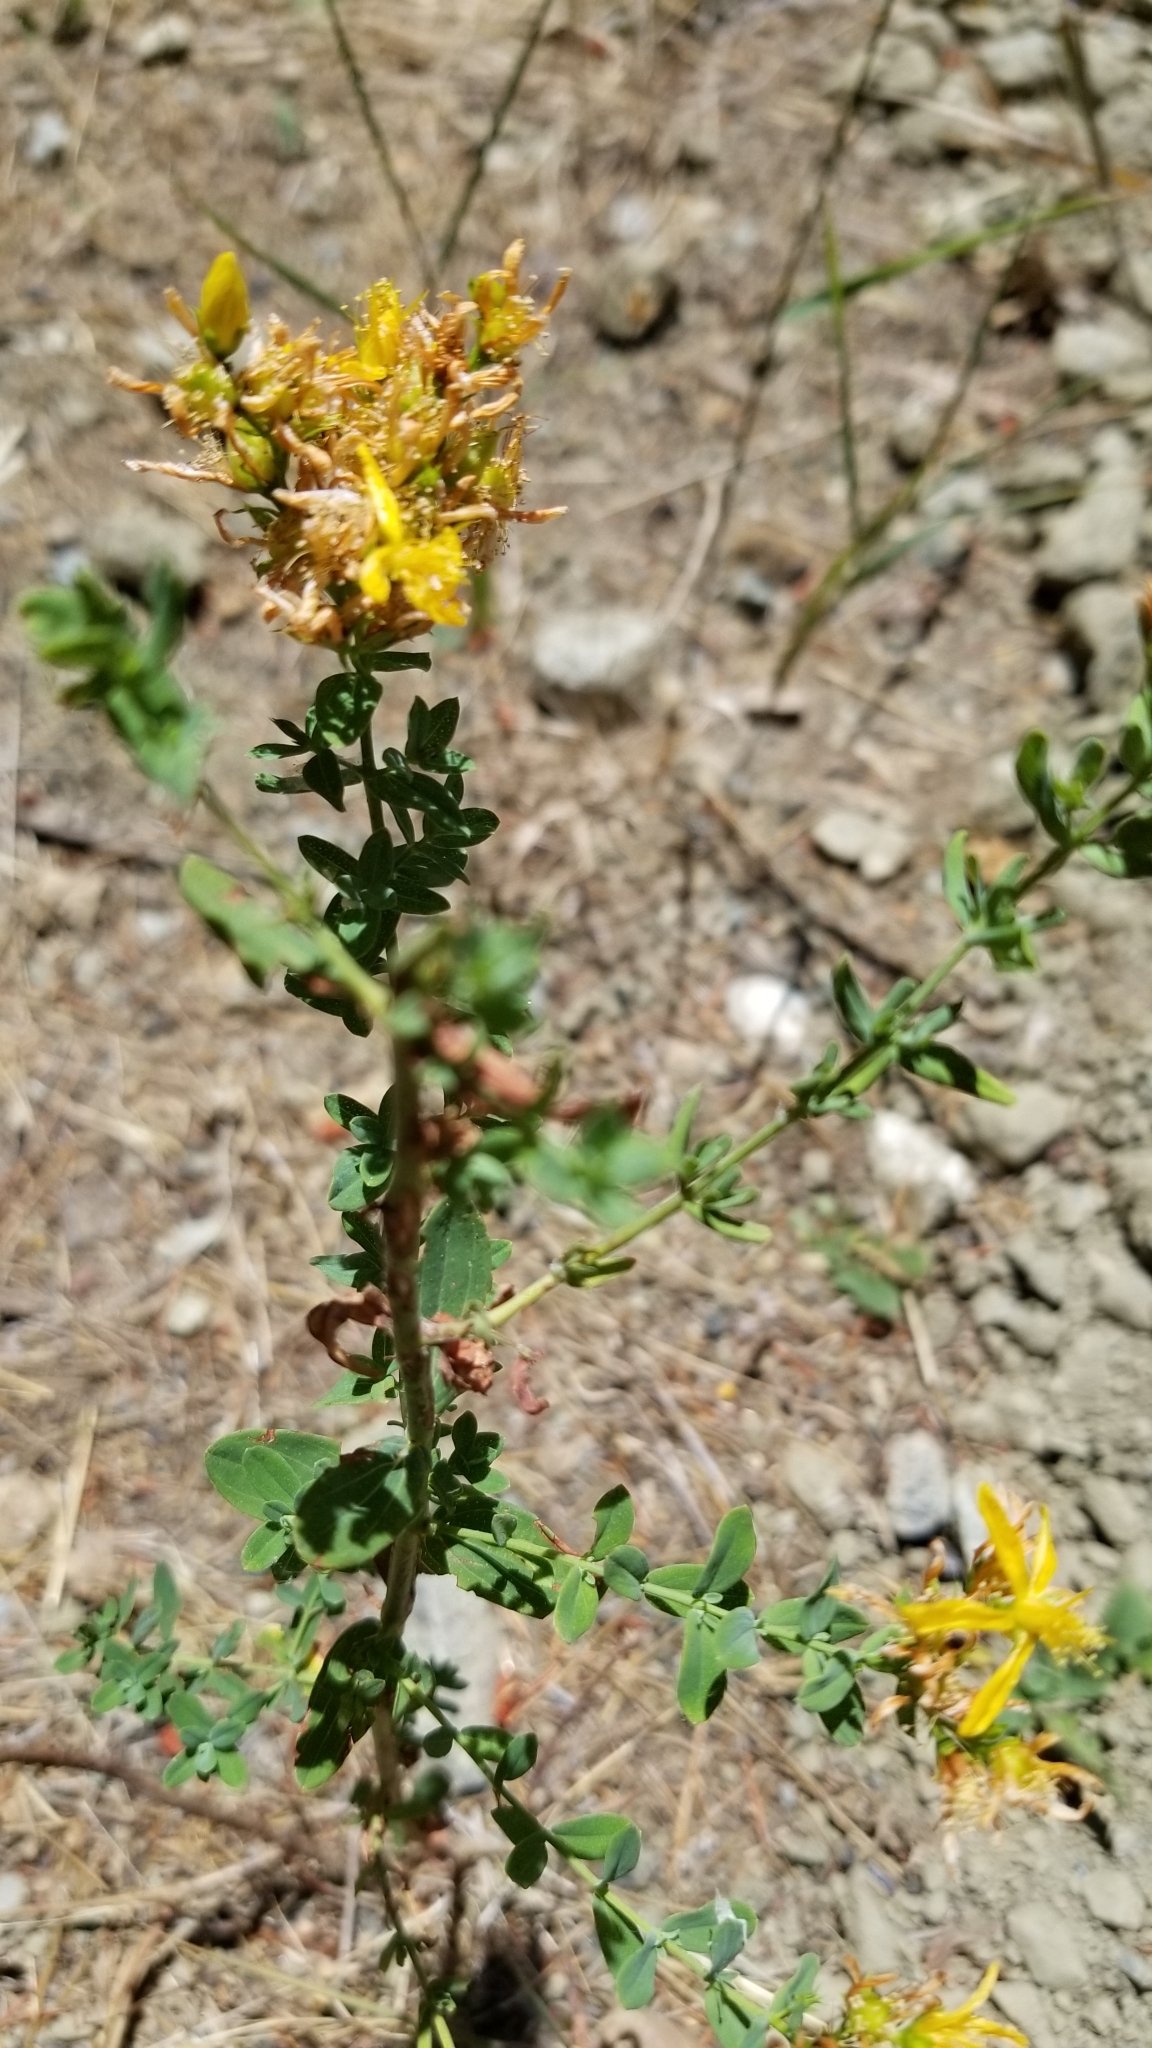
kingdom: Plantae
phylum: Tracheophyta
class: Magnoliopsida
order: Malpighiales
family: Hypericaceae
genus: Hypericum
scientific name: Hypericum perforatum
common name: Common st. johnswort
